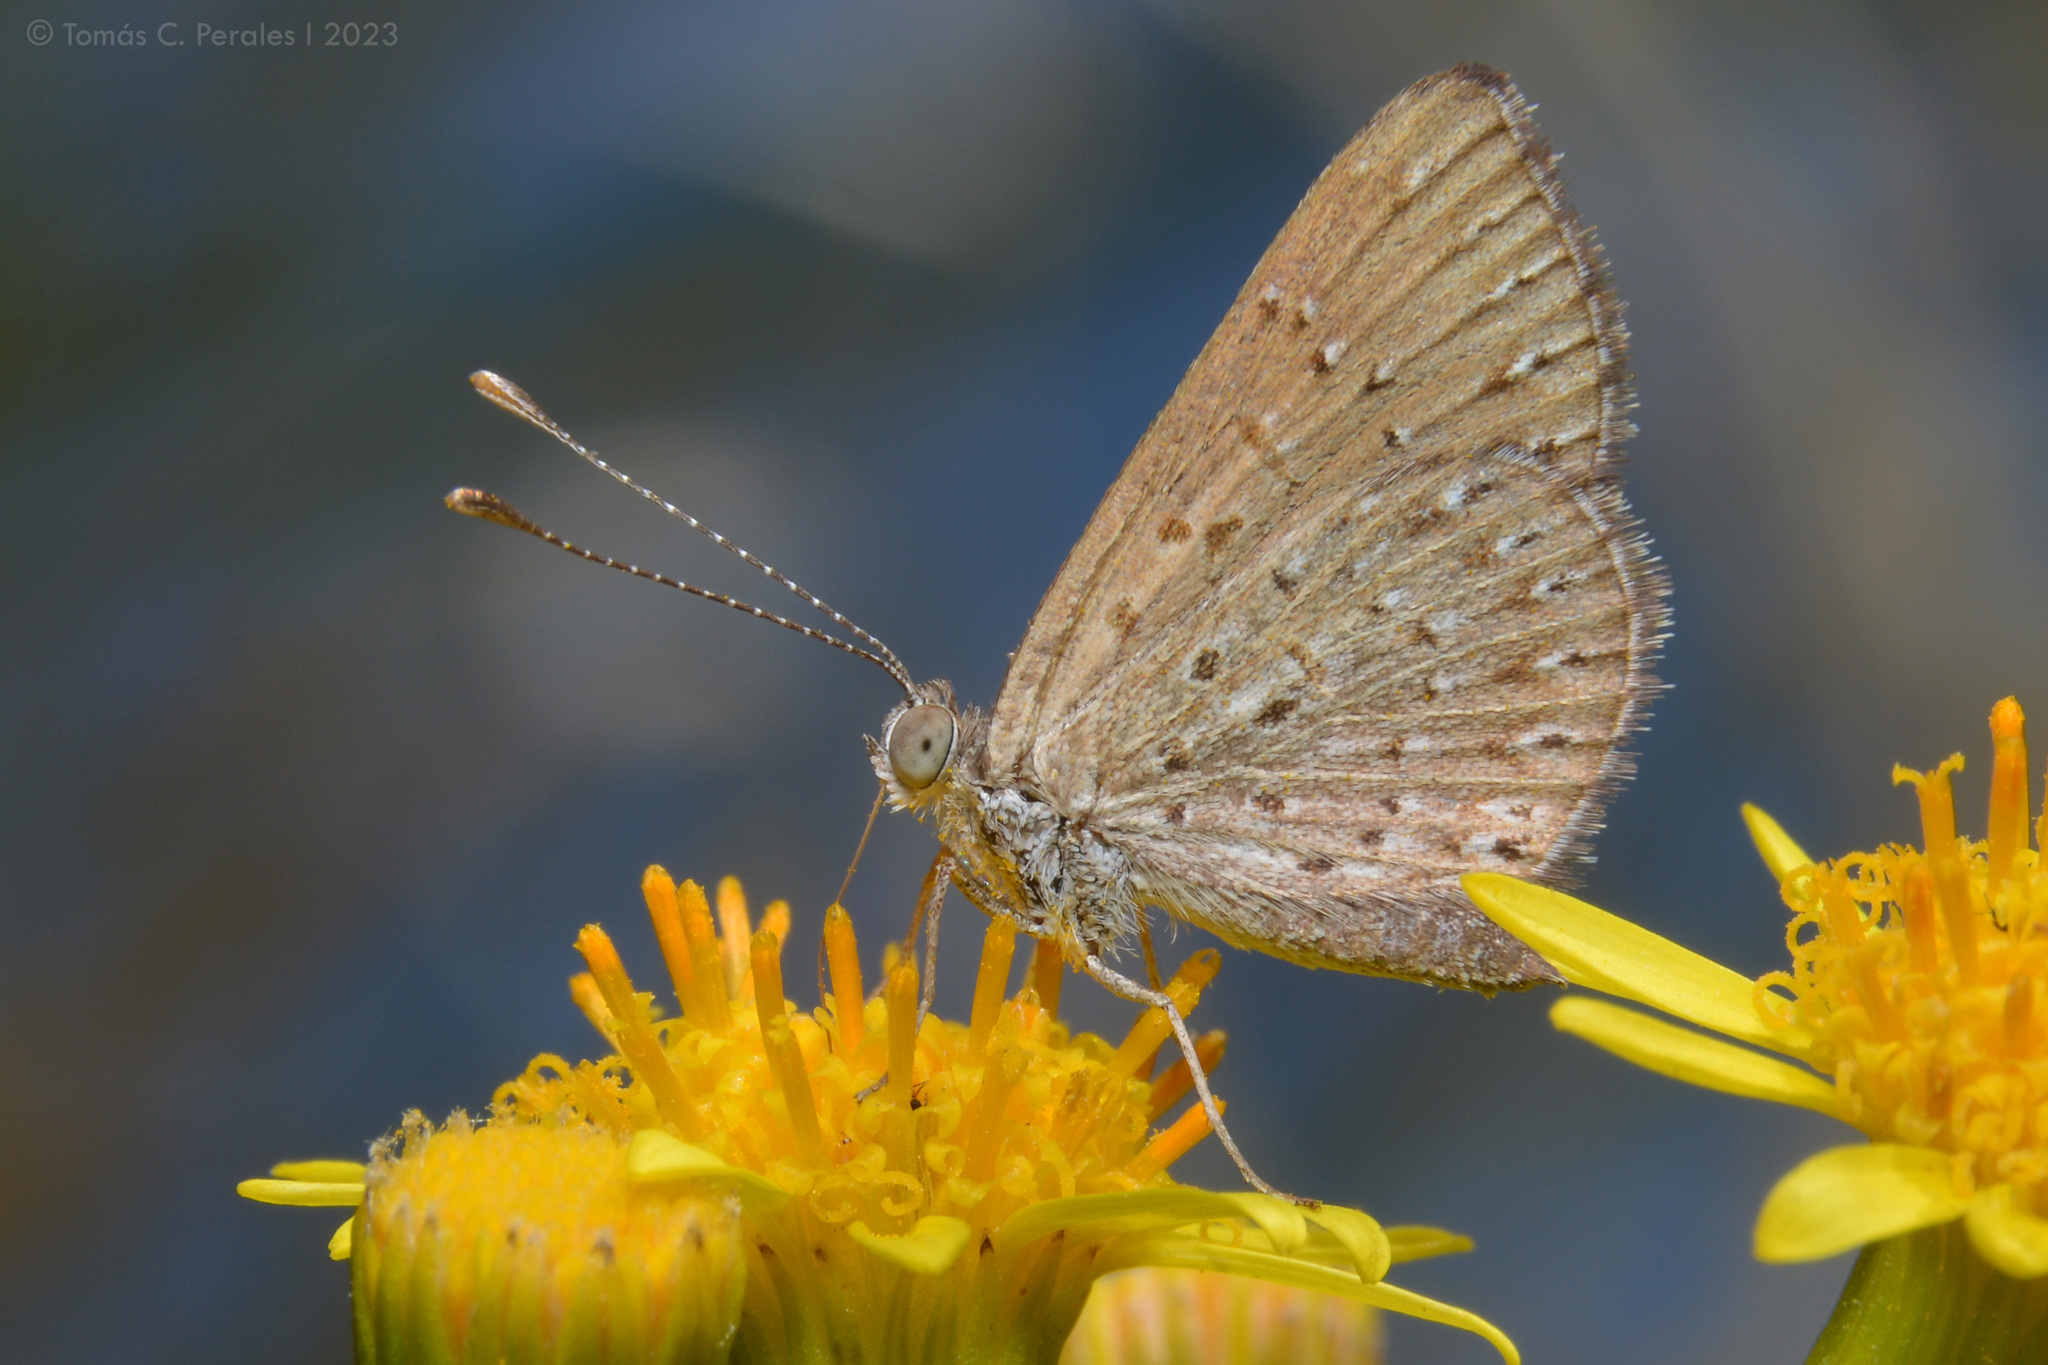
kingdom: Animalia
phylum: Arthropoda
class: Insecta
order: Lepidoptera
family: Riodinidae
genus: Zabuella
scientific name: Zabuella tenellus
